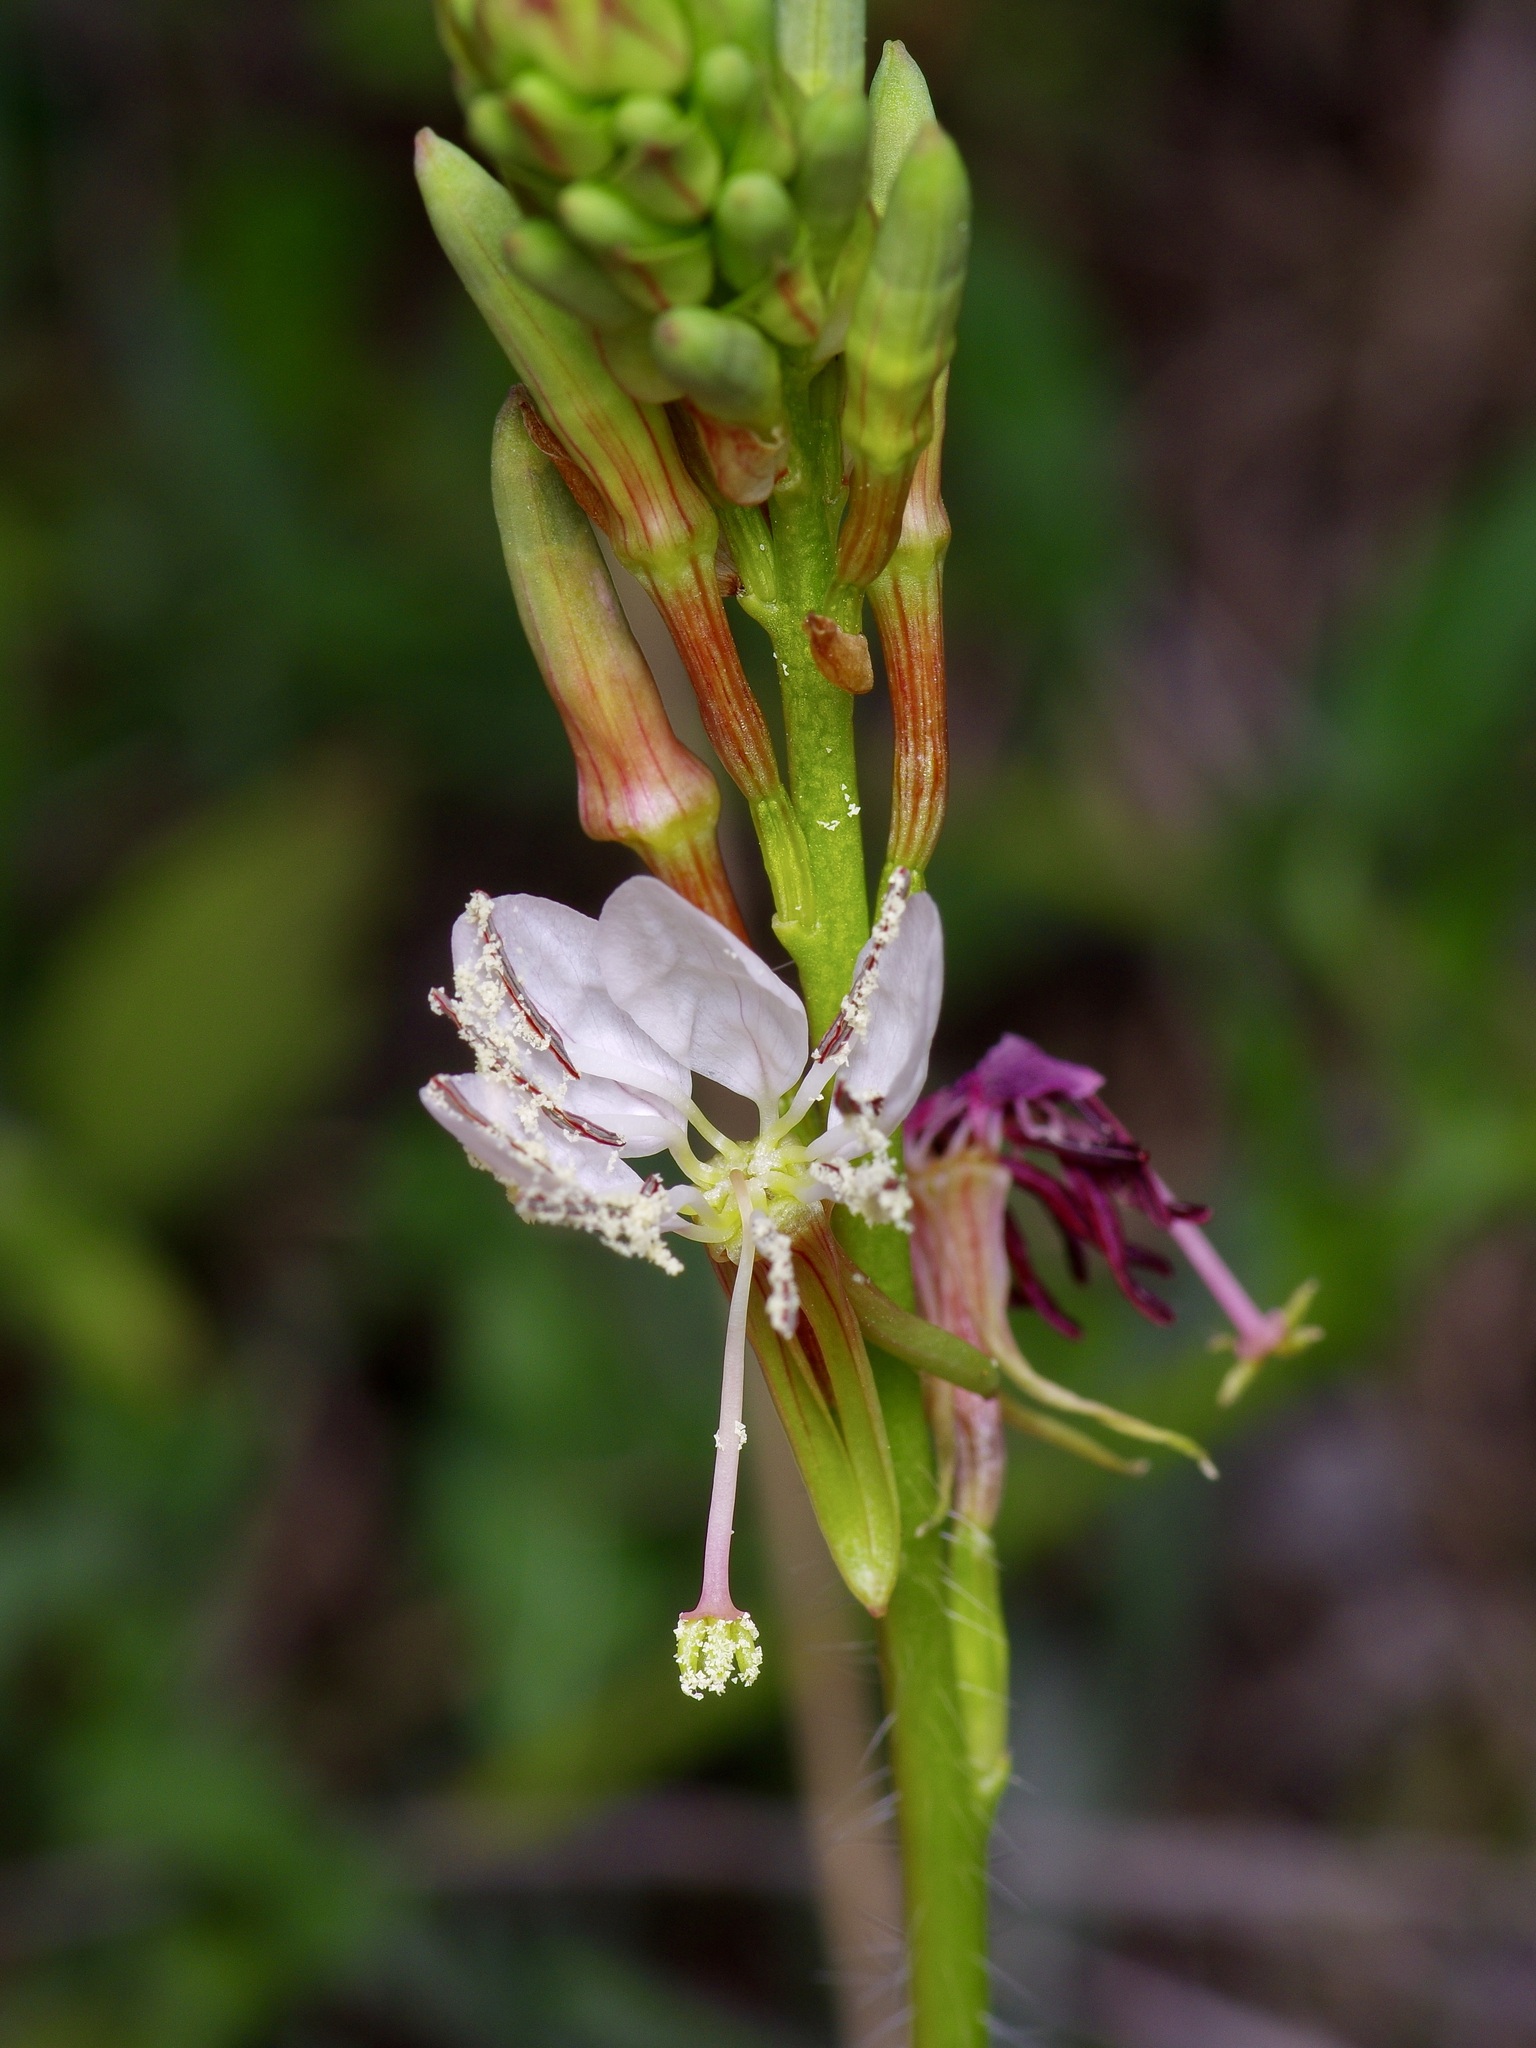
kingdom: Plantae
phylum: Tracheophyta
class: Magnoliopsida
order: Myrtales
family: Onagraceae
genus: Oenothera
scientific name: Oenothera suffulta
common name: Kisses
